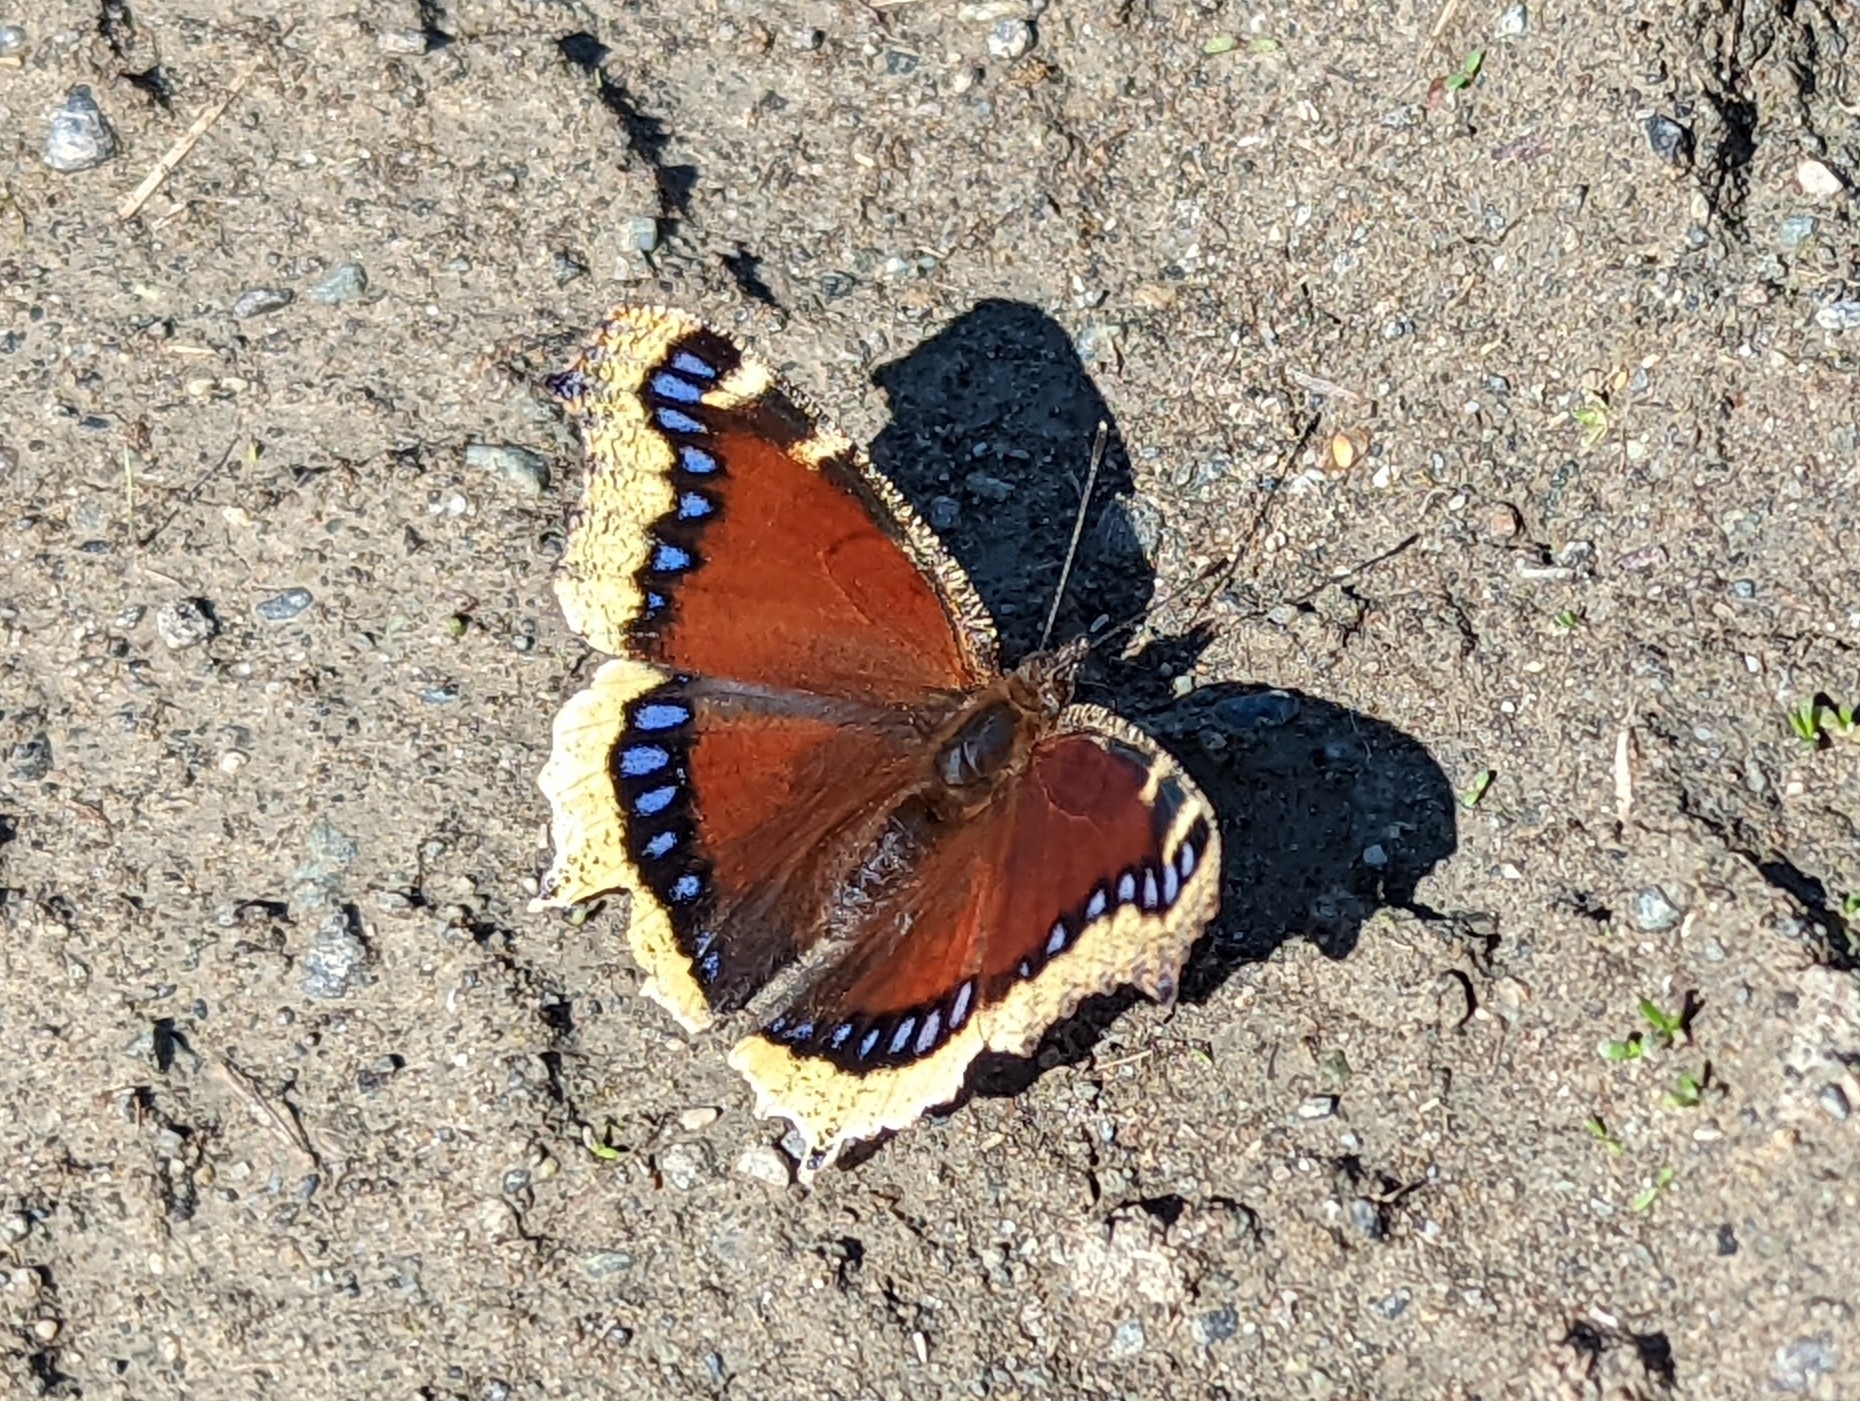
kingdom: Animalia
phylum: Arthropoda
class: Insecta
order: Lepidoptera
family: Nymphalidae
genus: Nymphalis
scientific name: Nymphalis antiopa
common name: Camberwell beauty
